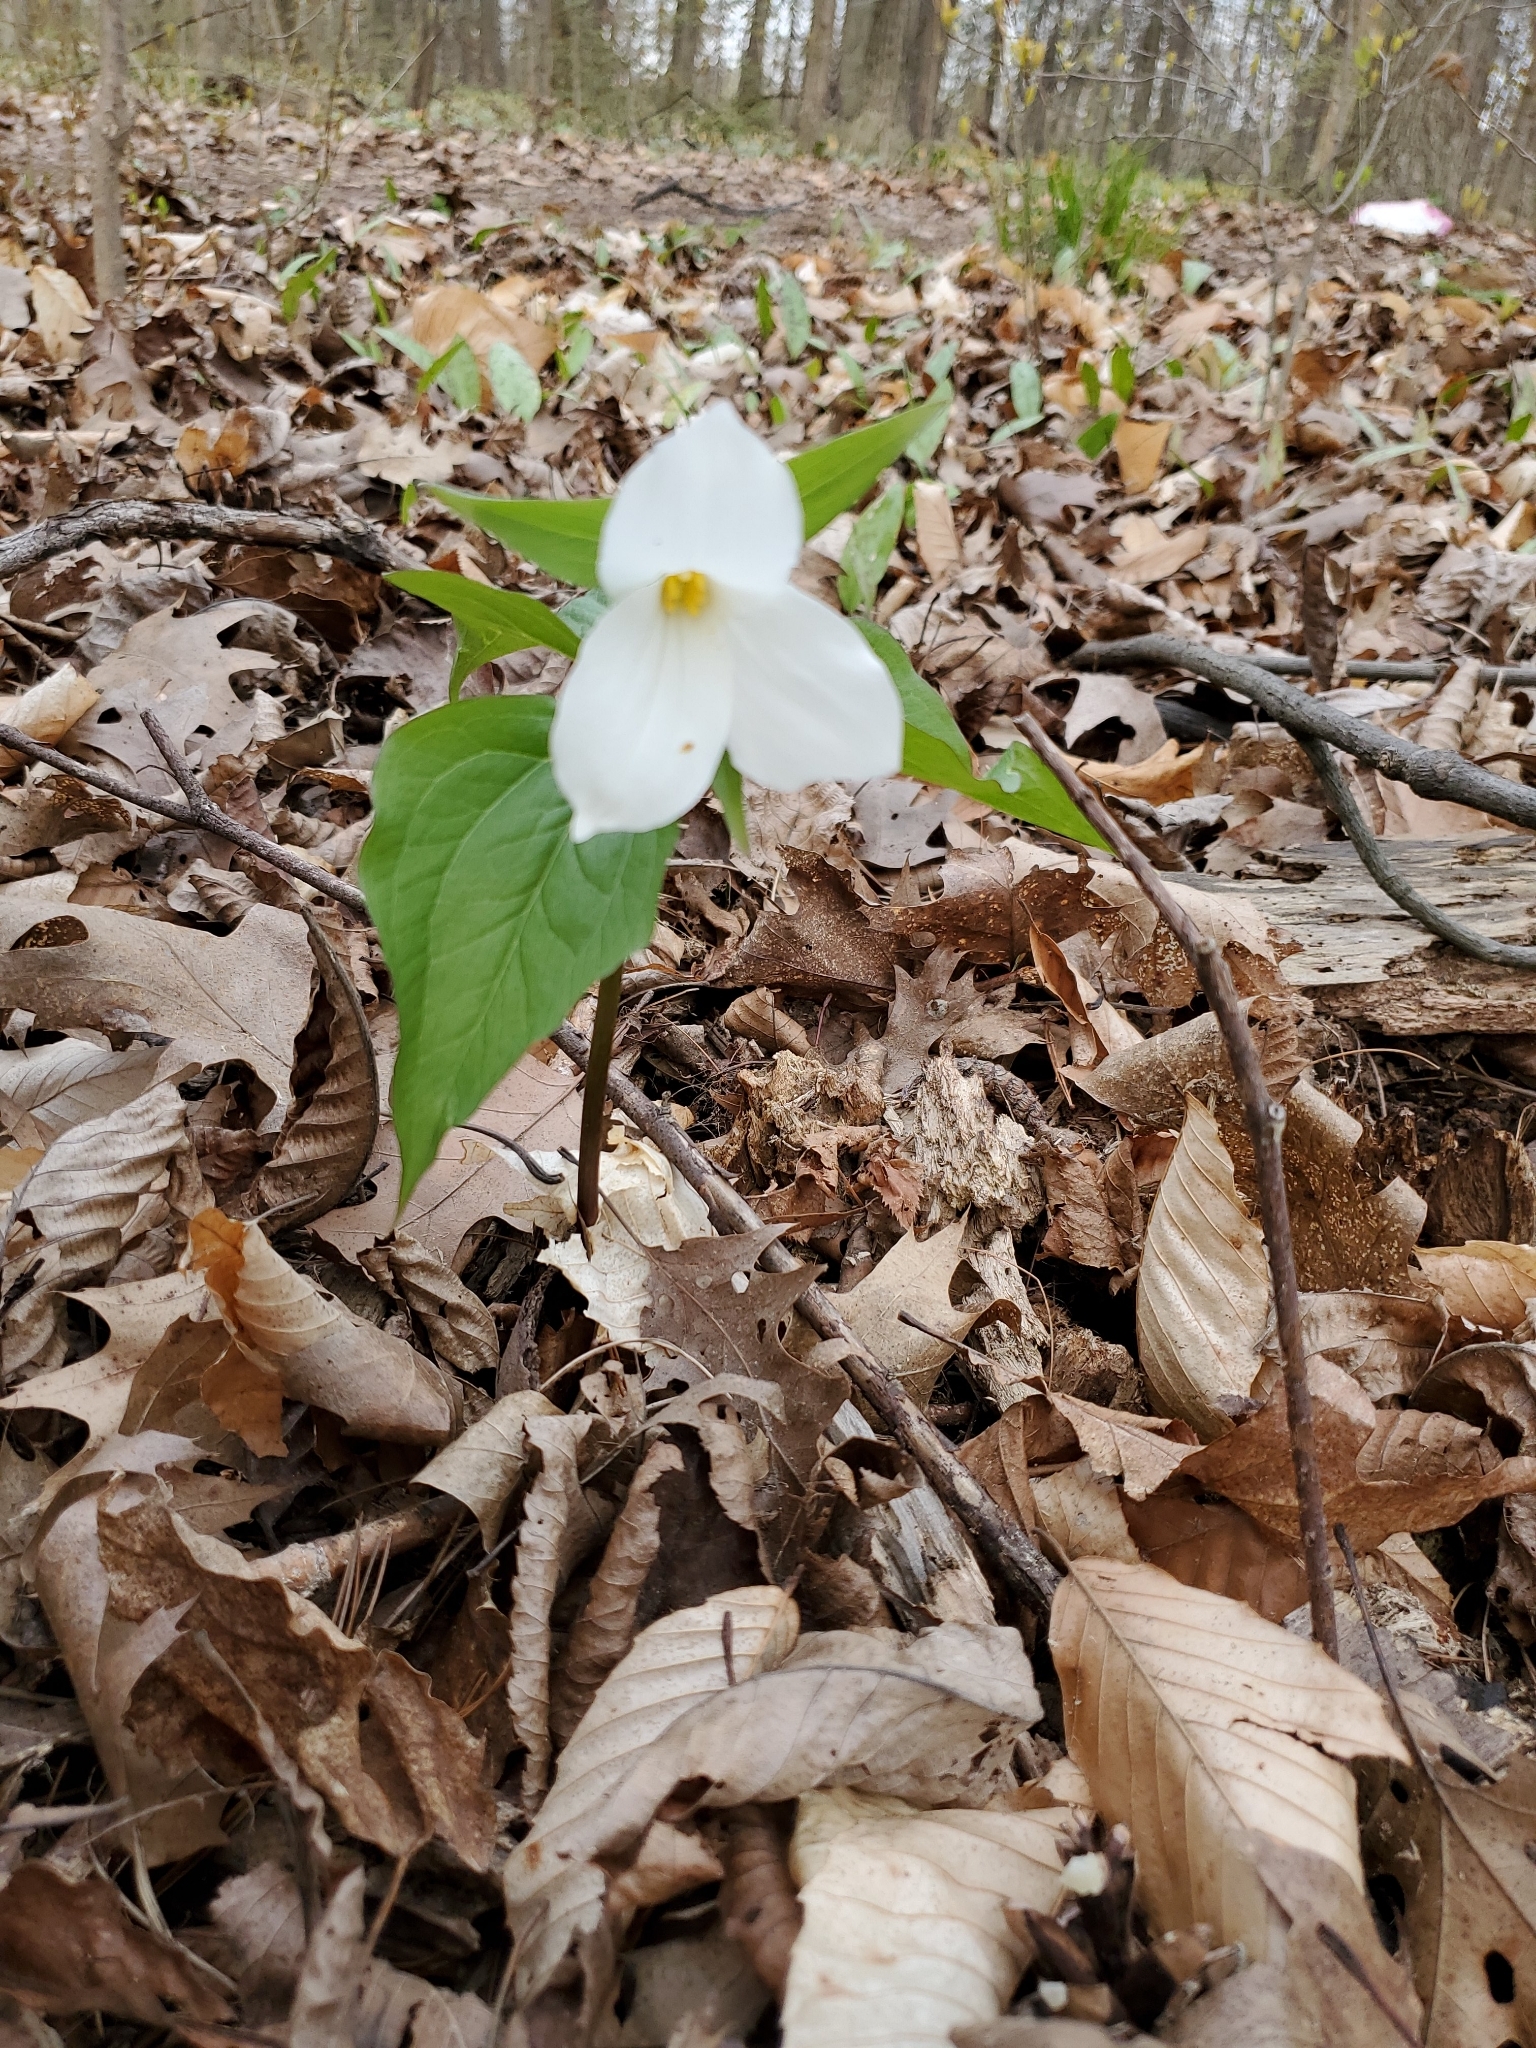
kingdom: Plantae
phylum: Tracheophyta
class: Liliopsida
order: Liliales
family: Melanthiaceae
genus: Trillium
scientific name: Trillium grandiflorum
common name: Great white trillium
